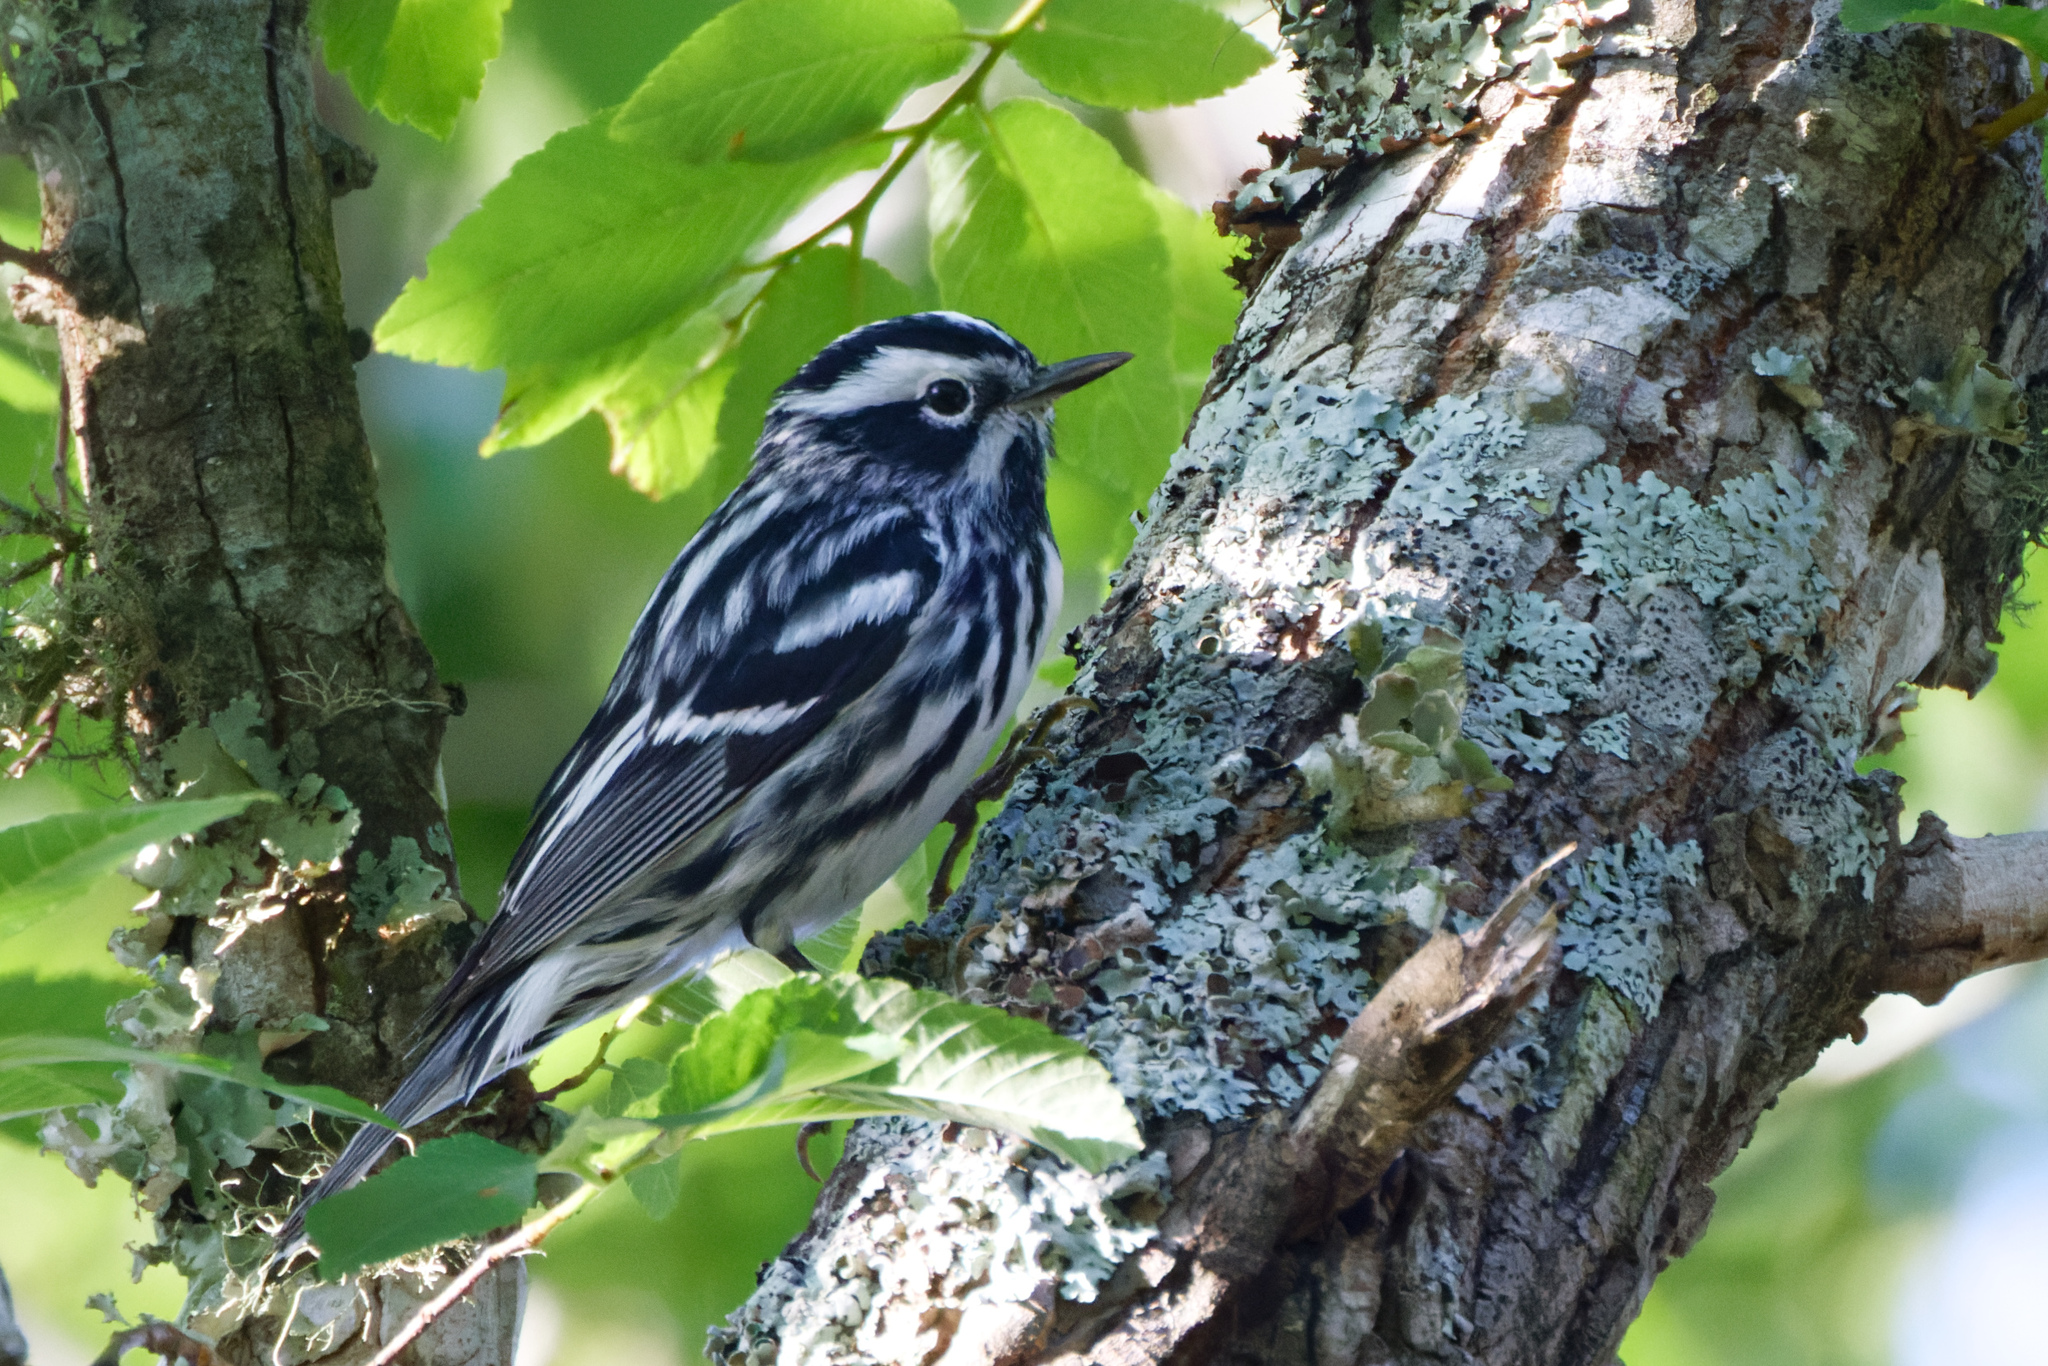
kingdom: Animalia
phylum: Chordata
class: Aves
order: Passeriformes
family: Parulidae
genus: Mniotilta
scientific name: Mniotilta varia
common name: Black-and-white warbler
